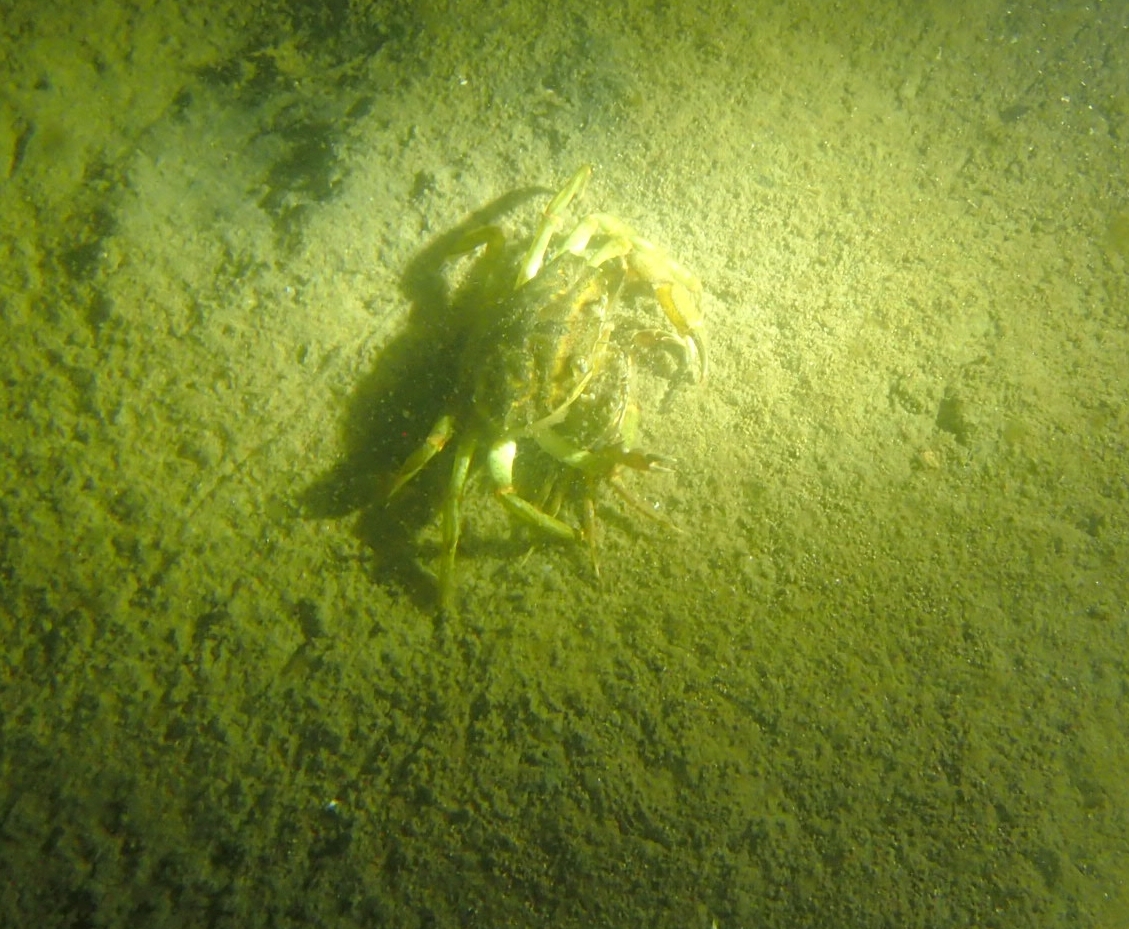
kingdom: Animalia
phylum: Arthropoda
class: Malacostraca
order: Decapoda
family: Carcinidae
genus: Carcinus
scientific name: Carcinus maenas
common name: European green crab
